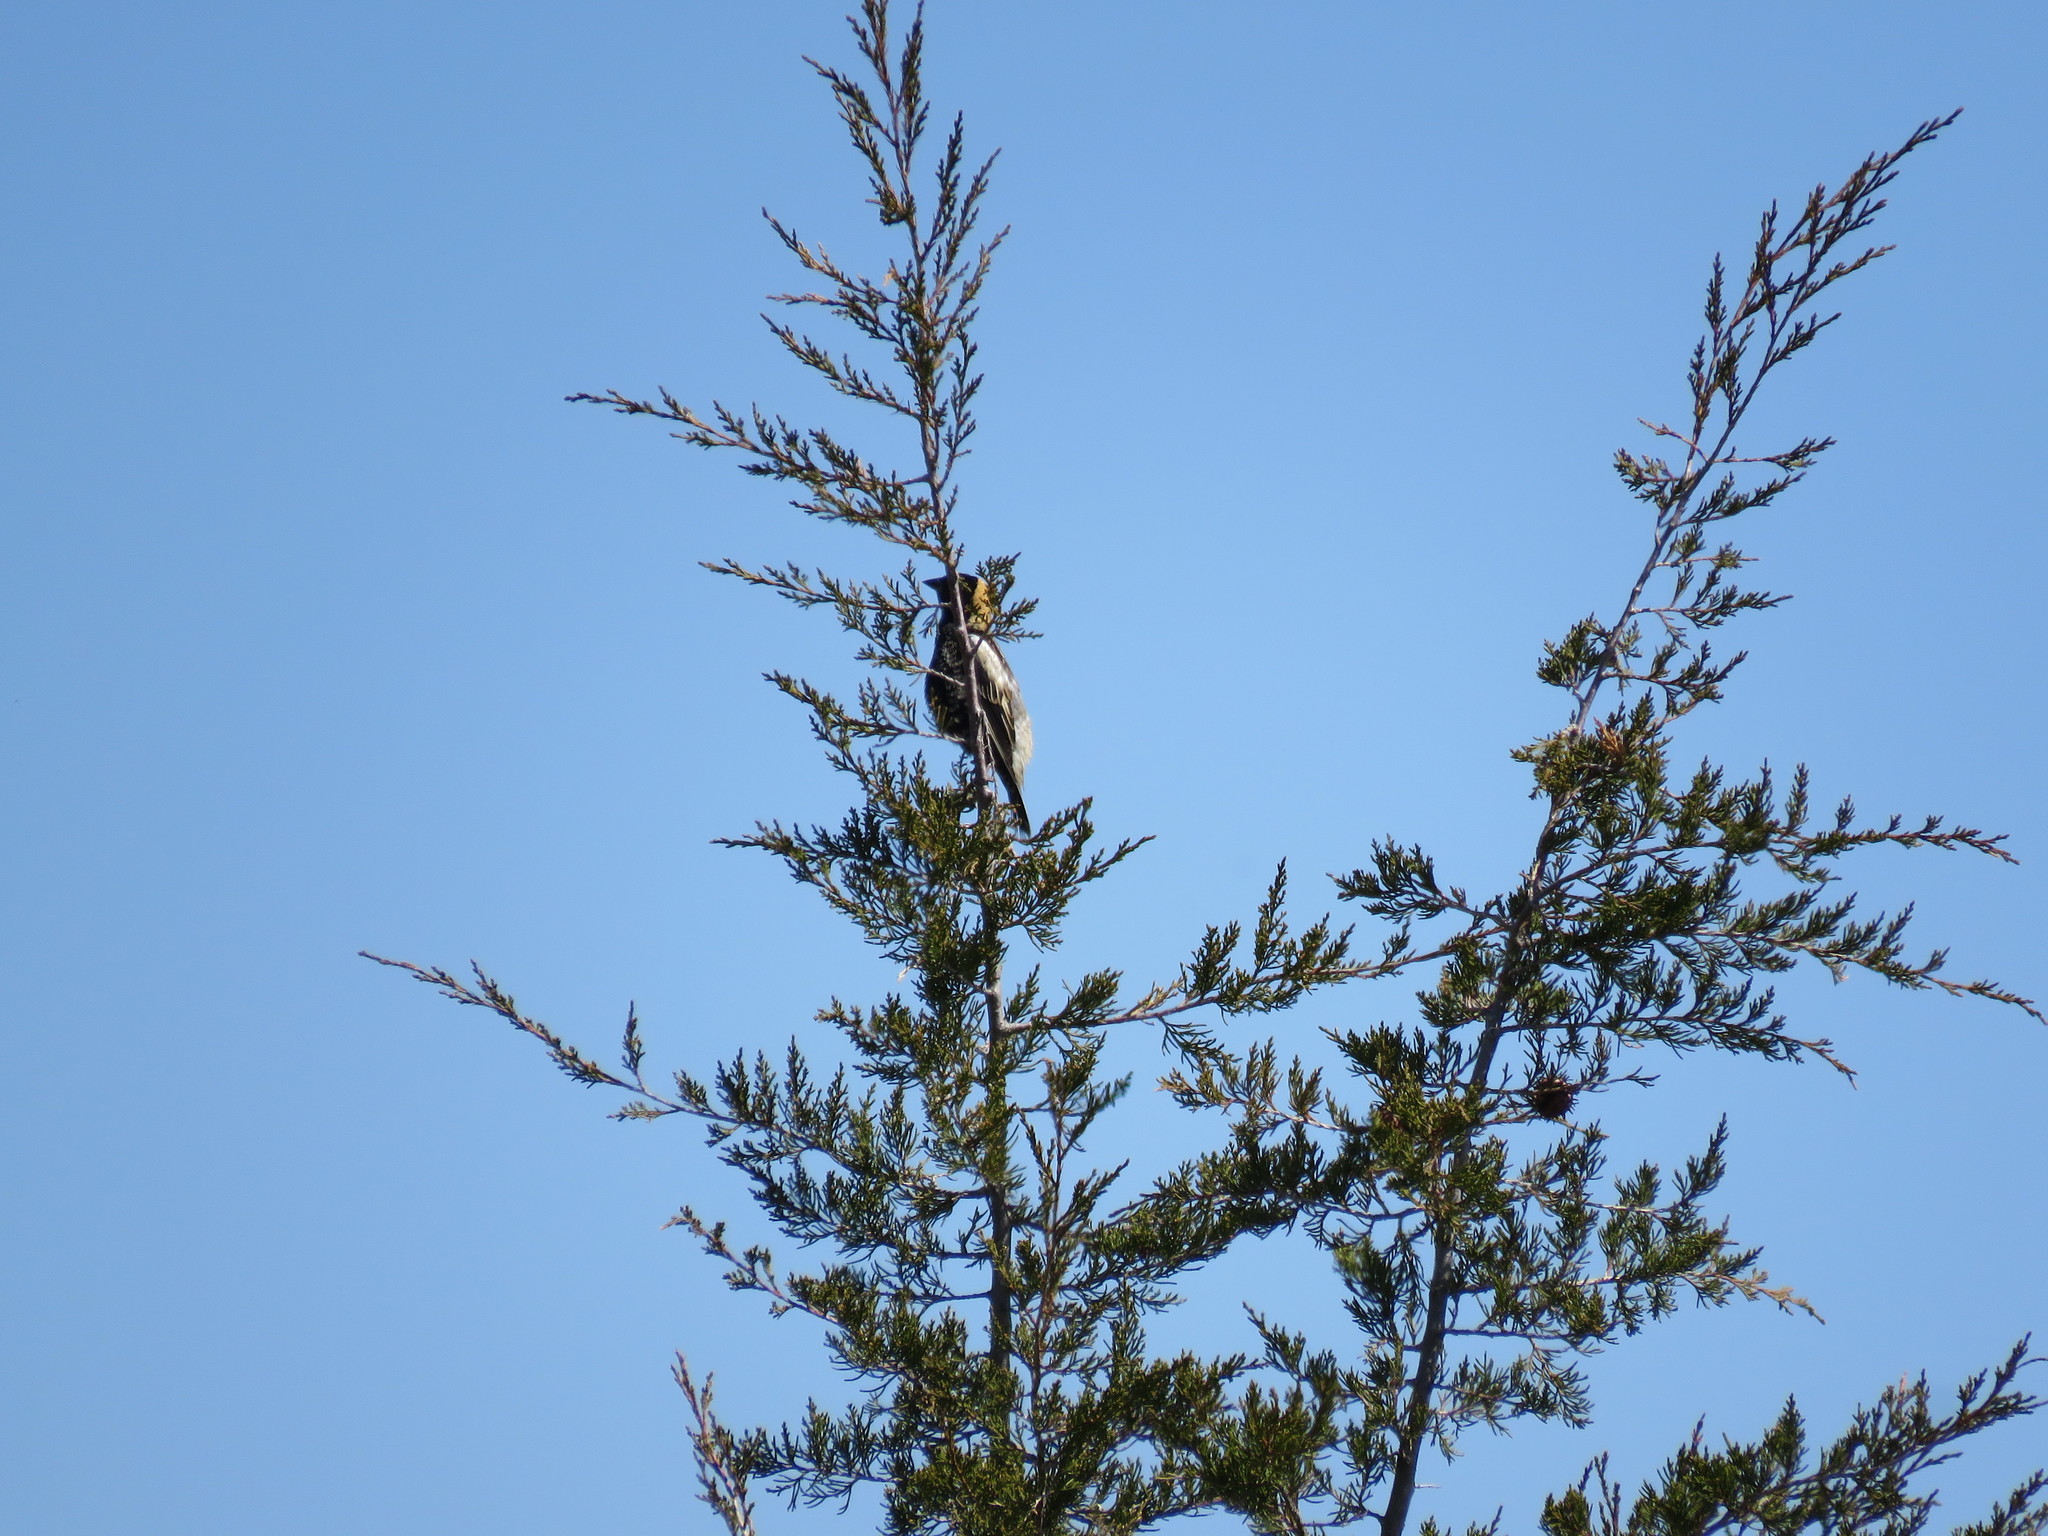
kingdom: Animalia
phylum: Chordata
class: Aves
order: Passeriformes
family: Icteridae
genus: Dolichonyx
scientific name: Dolichonyx oryzivorus
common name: Bobolink
